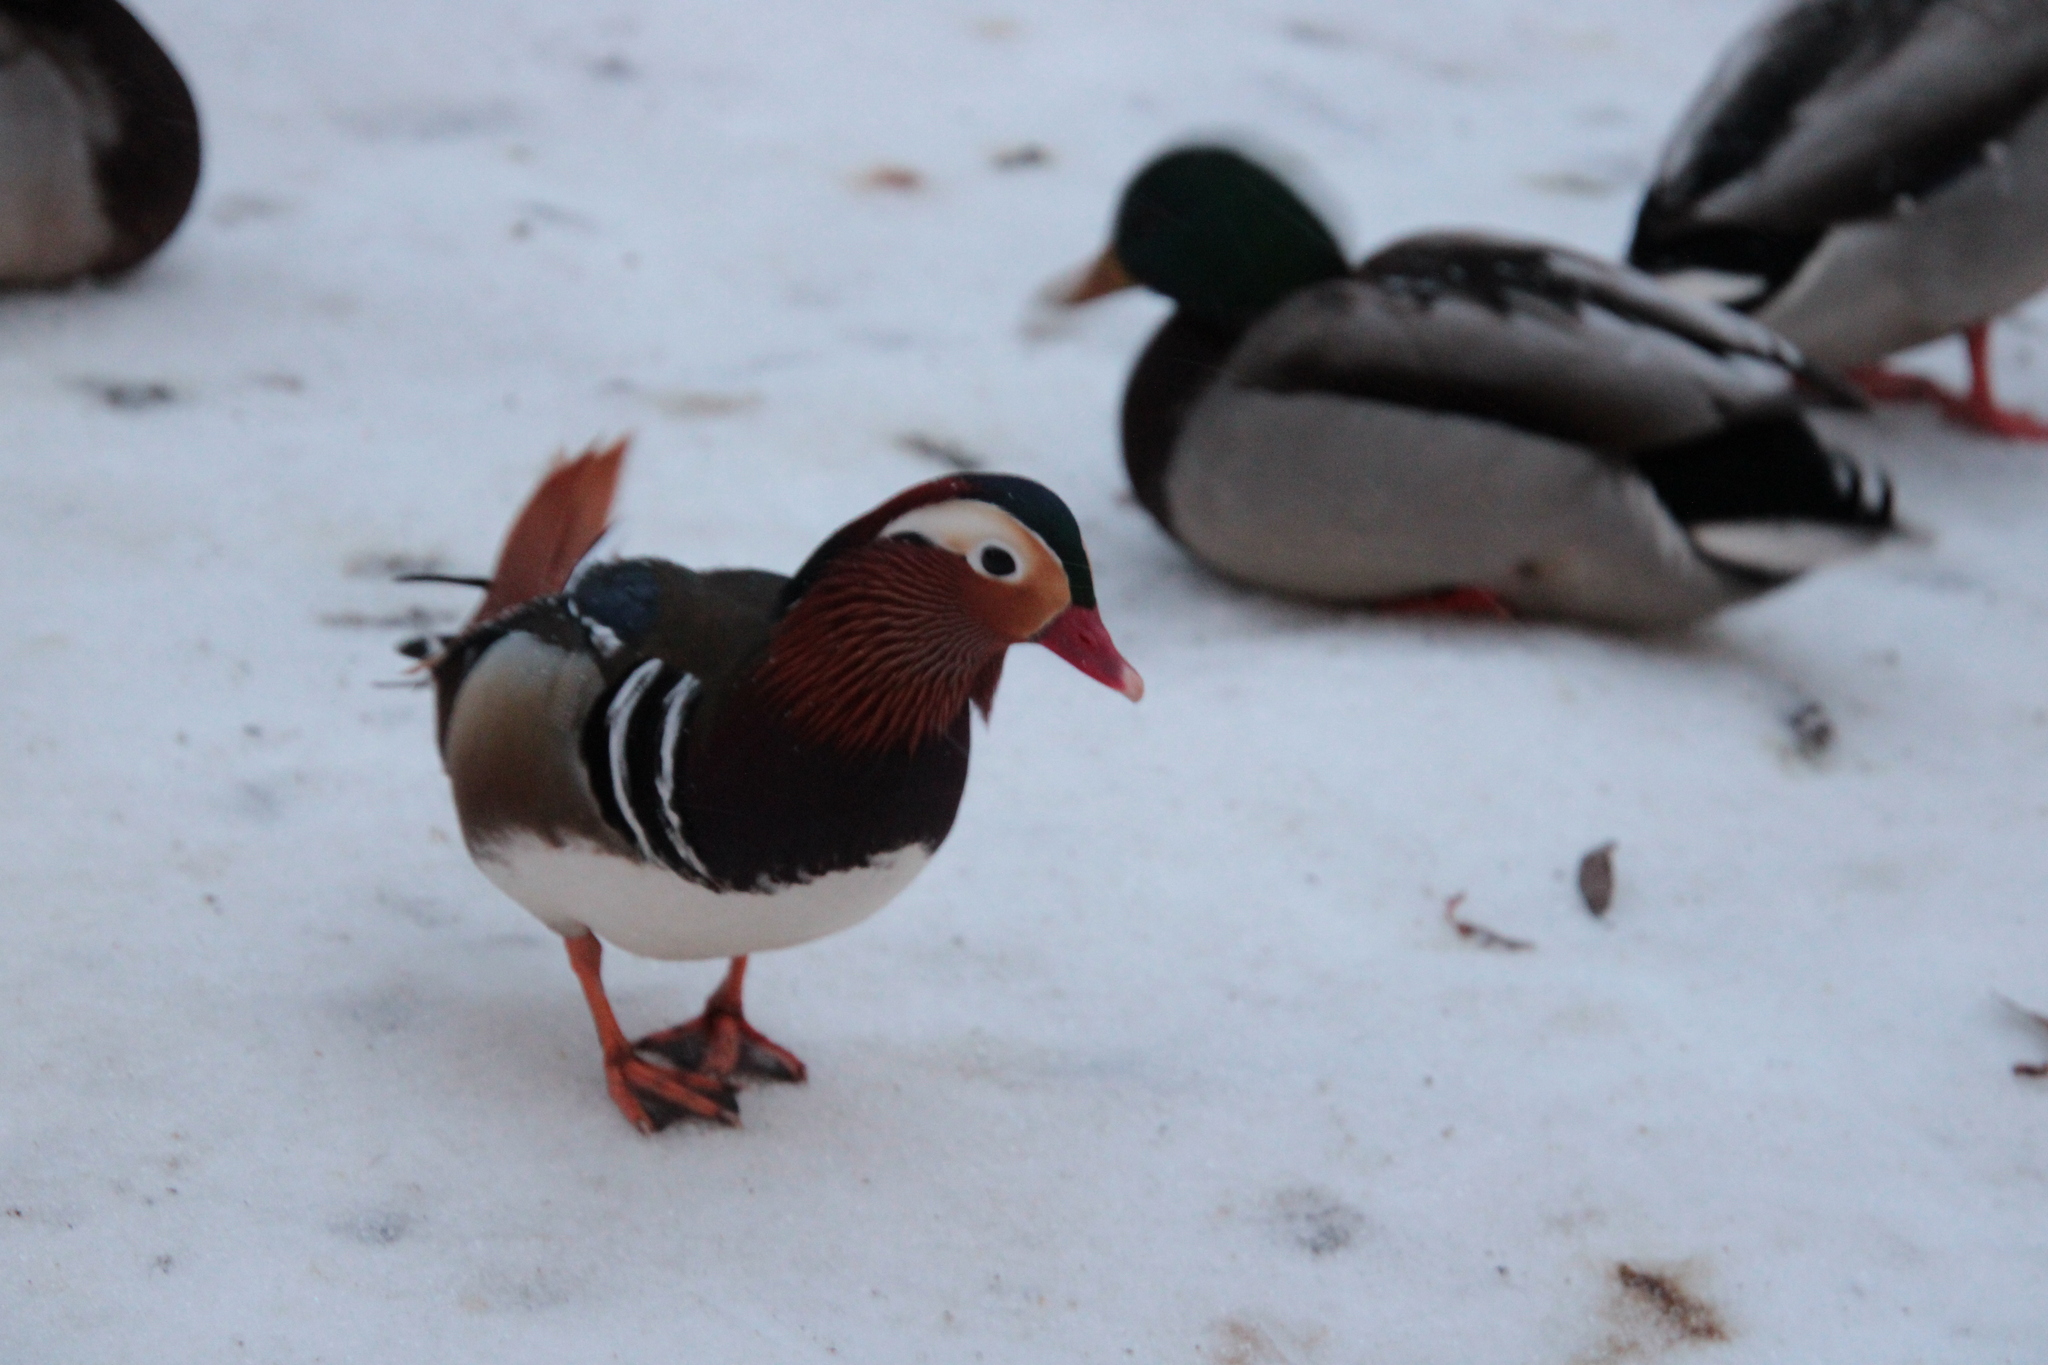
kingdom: Animalia
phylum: Chordata
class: Aves
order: Anseriformes
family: Anatidae
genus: Aix
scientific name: Aix galericulata
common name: Mandarin duck
